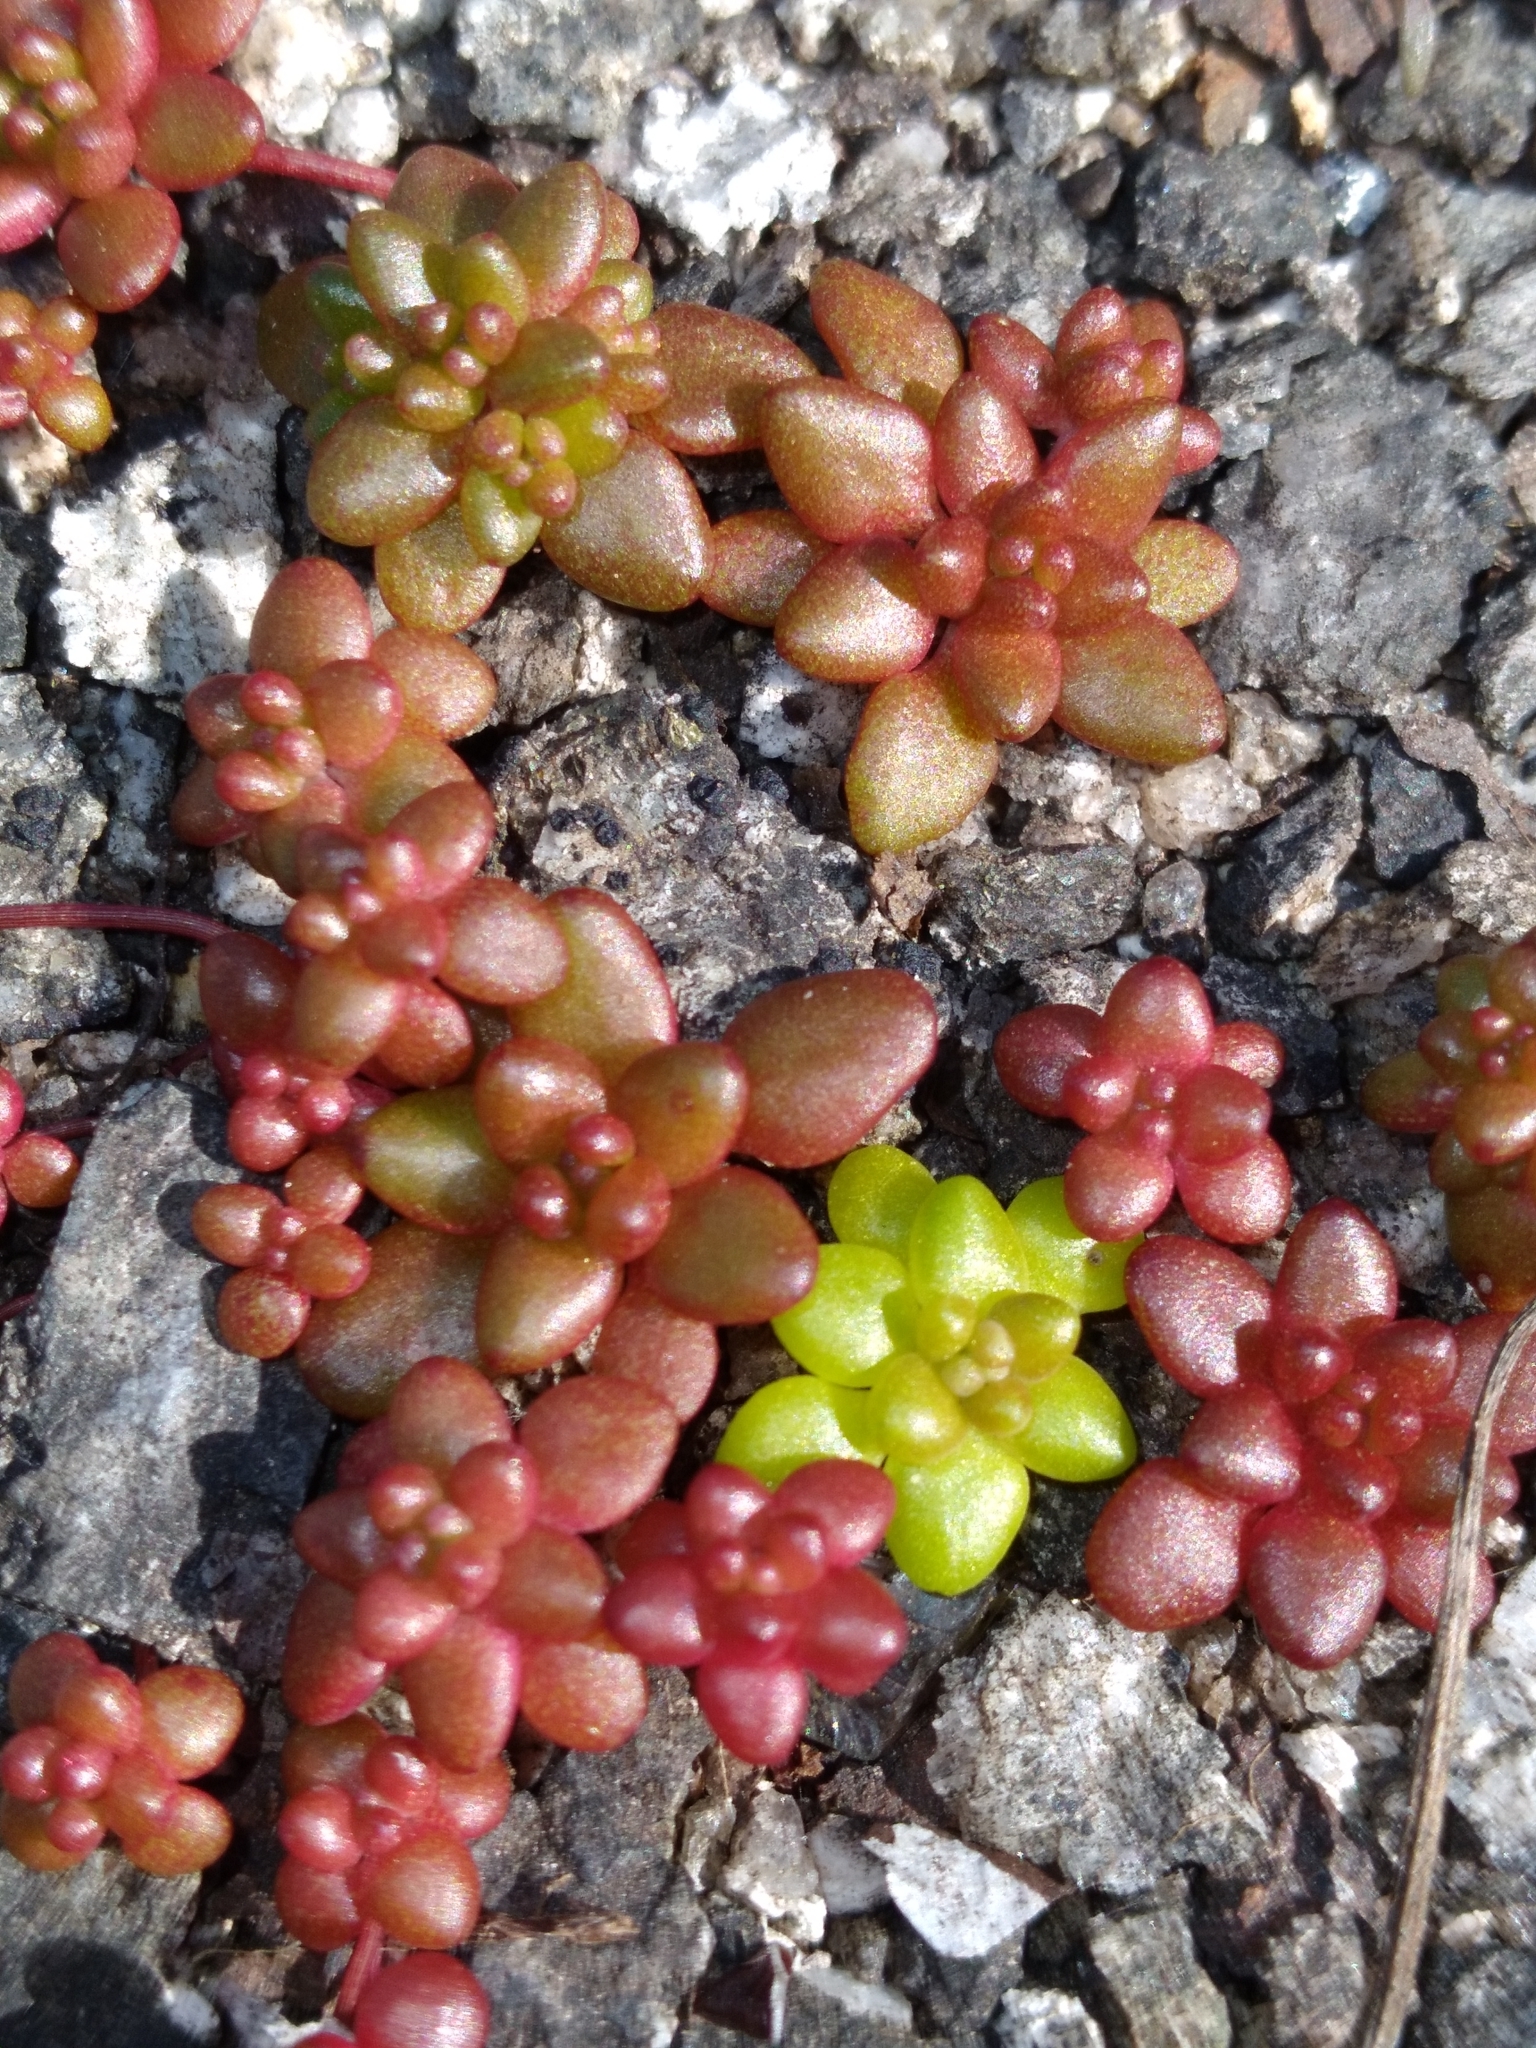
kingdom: Plantae
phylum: Tracheophyta
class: Magnoliopsida
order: Saxifragales
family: Crassulaceae
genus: Sedum
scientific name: Sedum smallii
